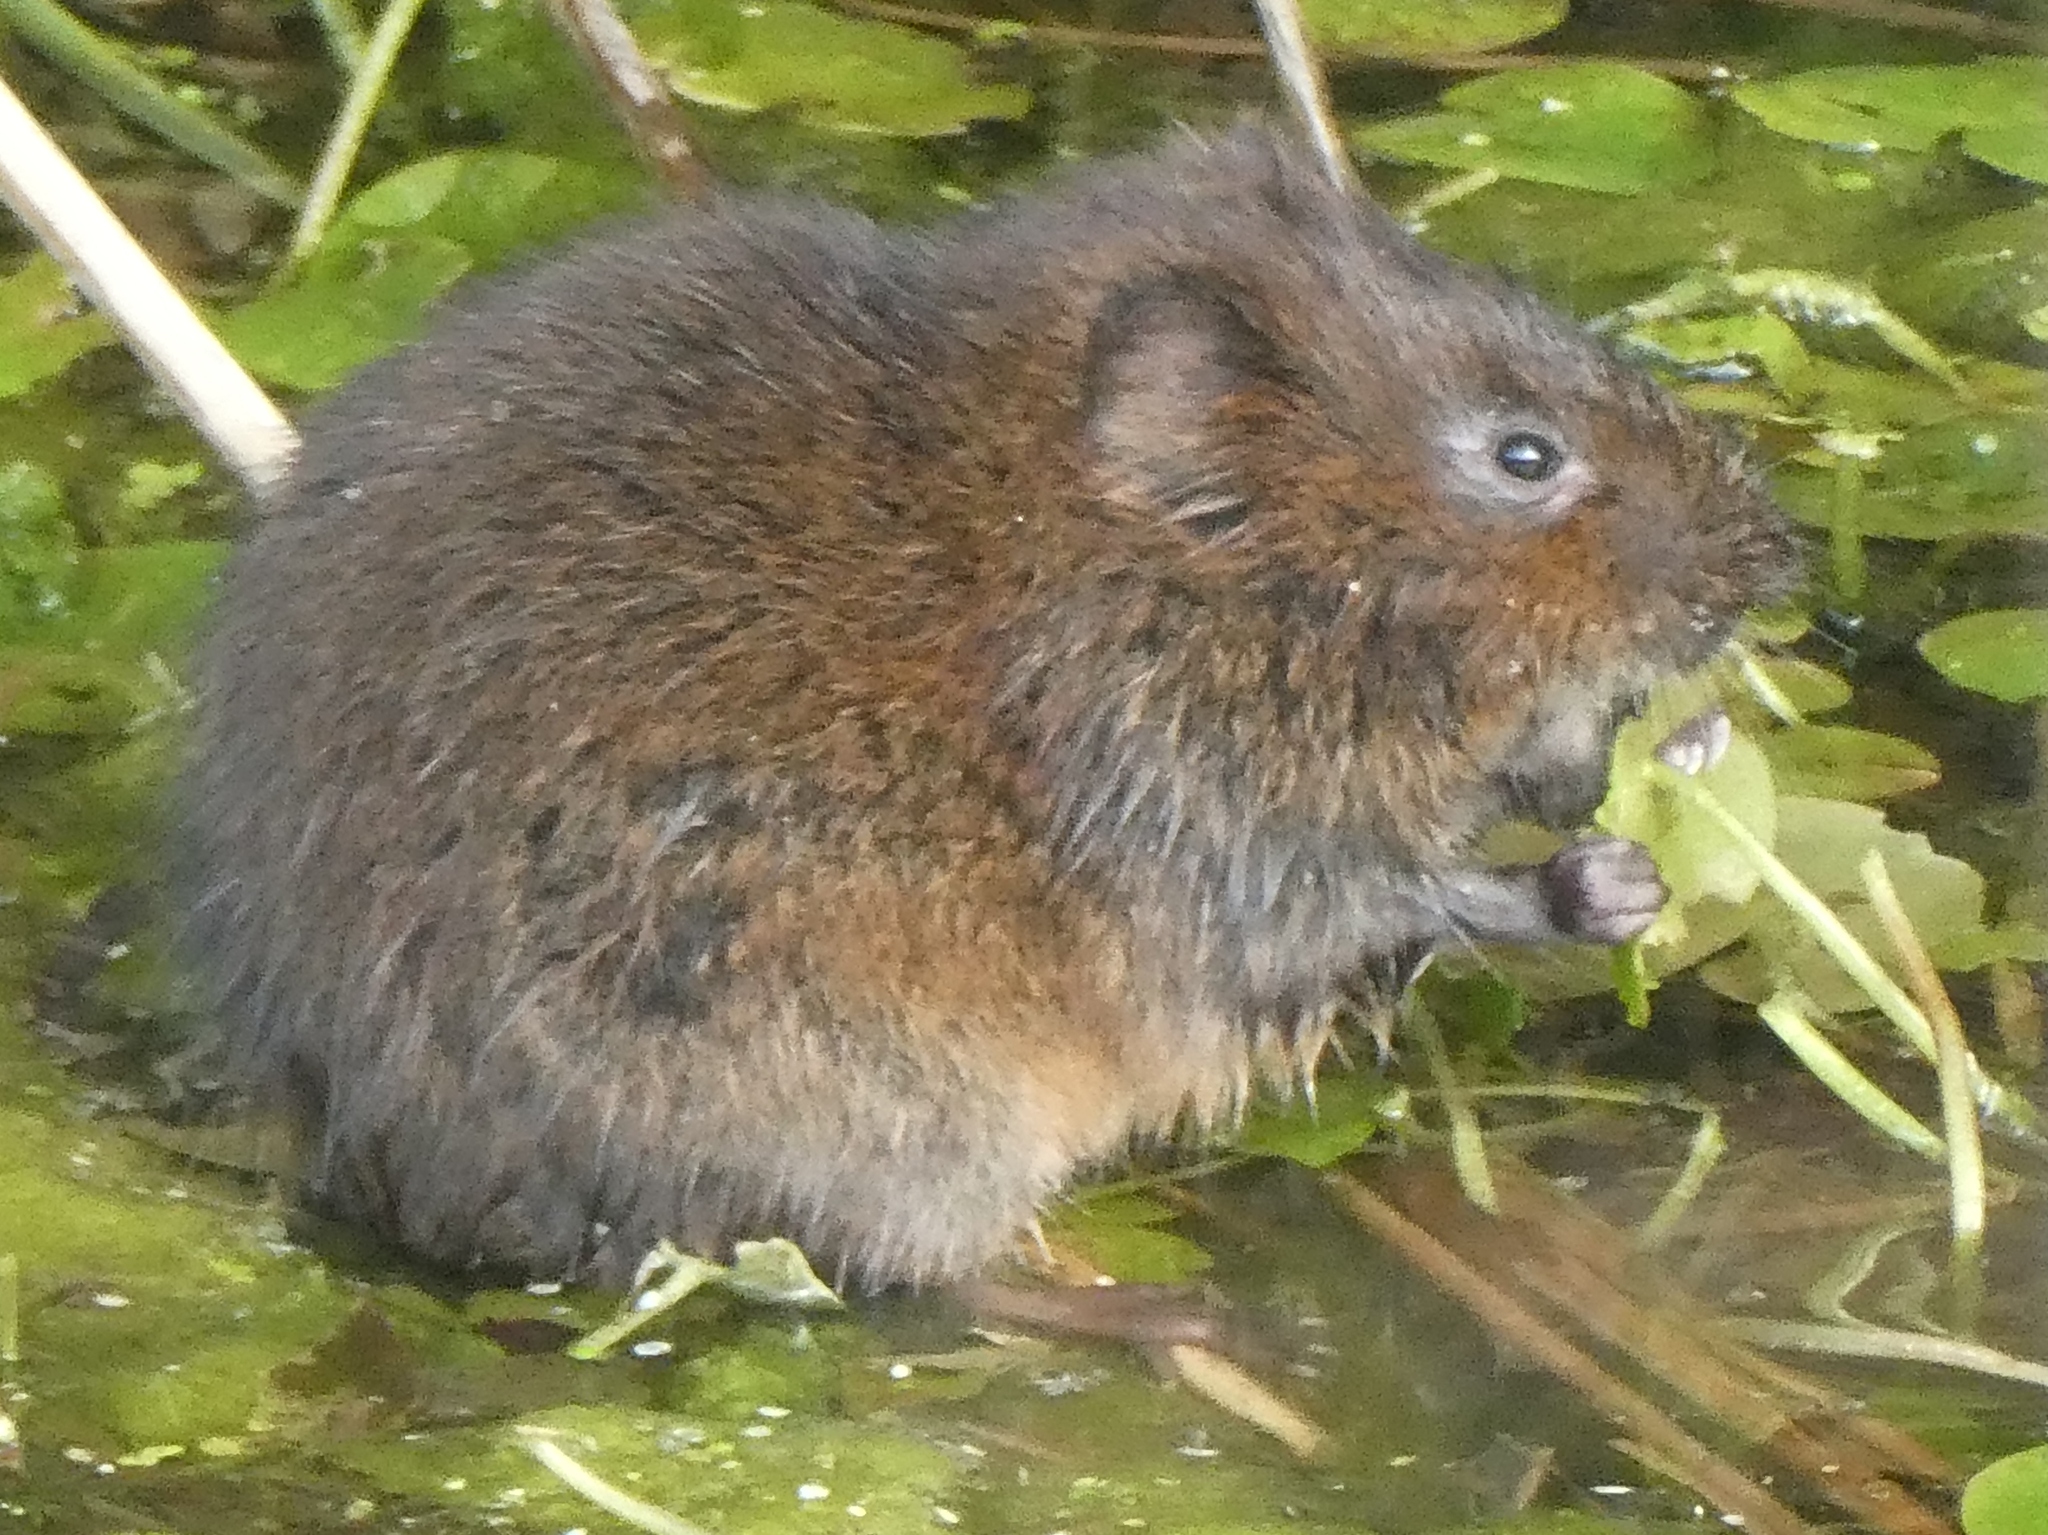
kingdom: Animalia
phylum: Chordata
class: Mammalia
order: Rodentia
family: Cricetidae
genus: Arvicola
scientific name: Arvicola amphibius
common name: European water vole
